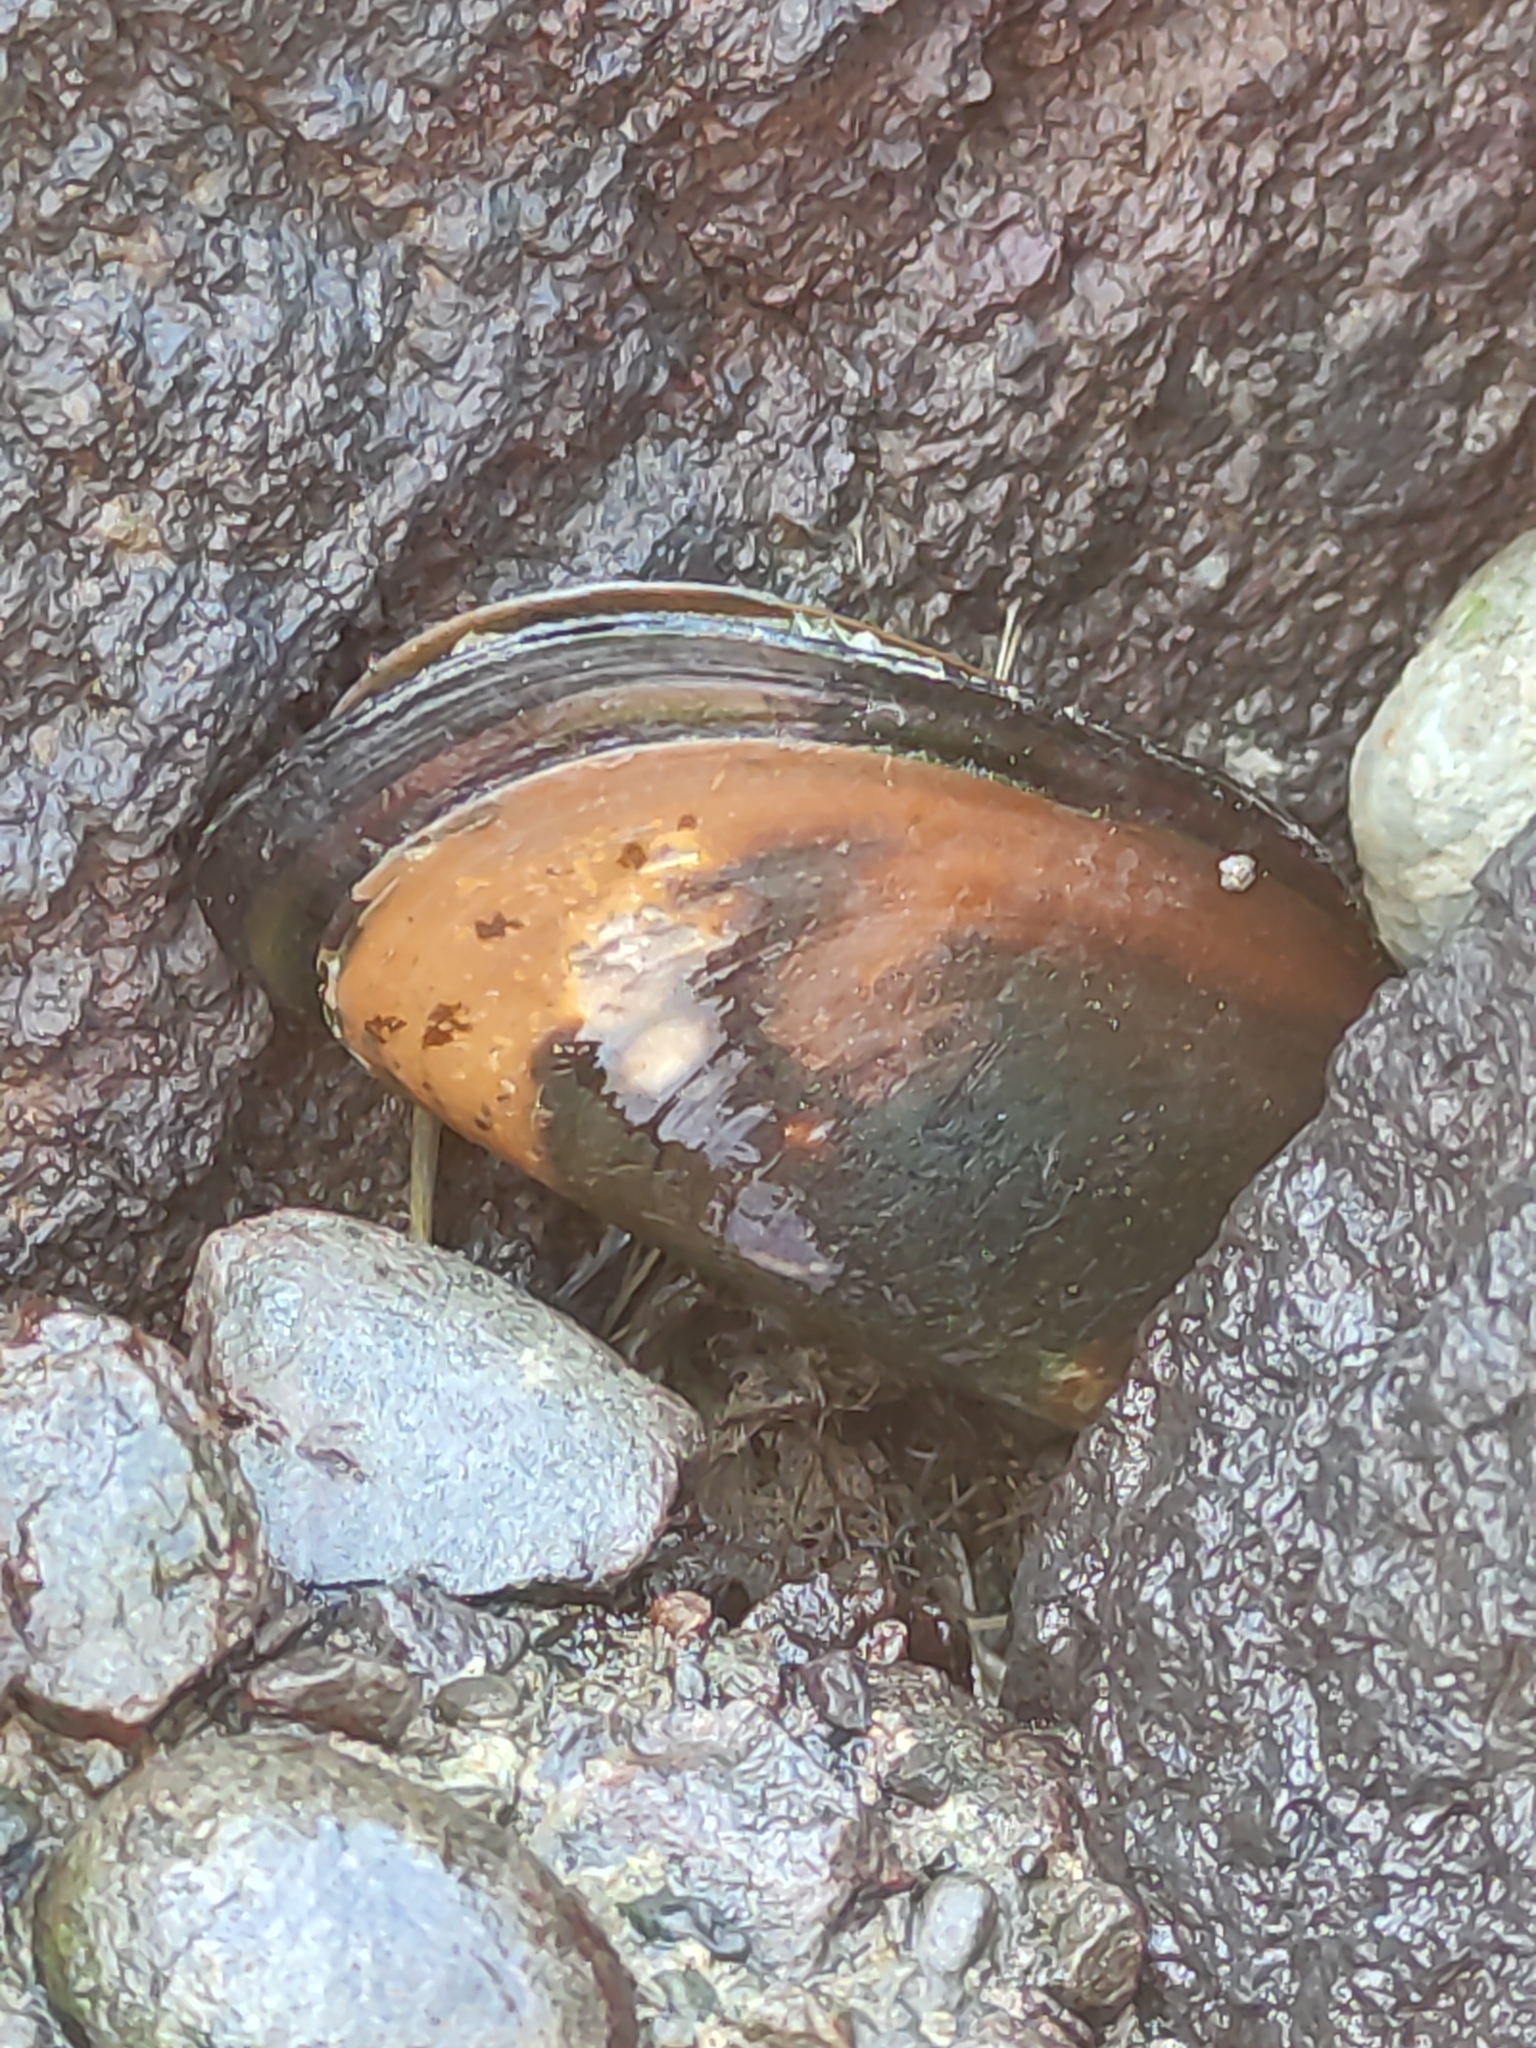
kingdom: Animalia
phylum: Mollusca
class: Bivalvia
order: Mytilida
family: Mytilidae
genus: Perna
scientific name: Perna canaliculus
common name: New zealand greenshelltm
